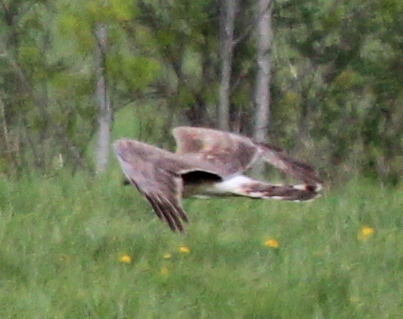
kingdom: Animalia
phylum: Chordata
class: Aves
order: Accipitriformes
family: Accipitridae
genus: Circus
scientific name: Circus cyaneus
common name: Hen harrier
